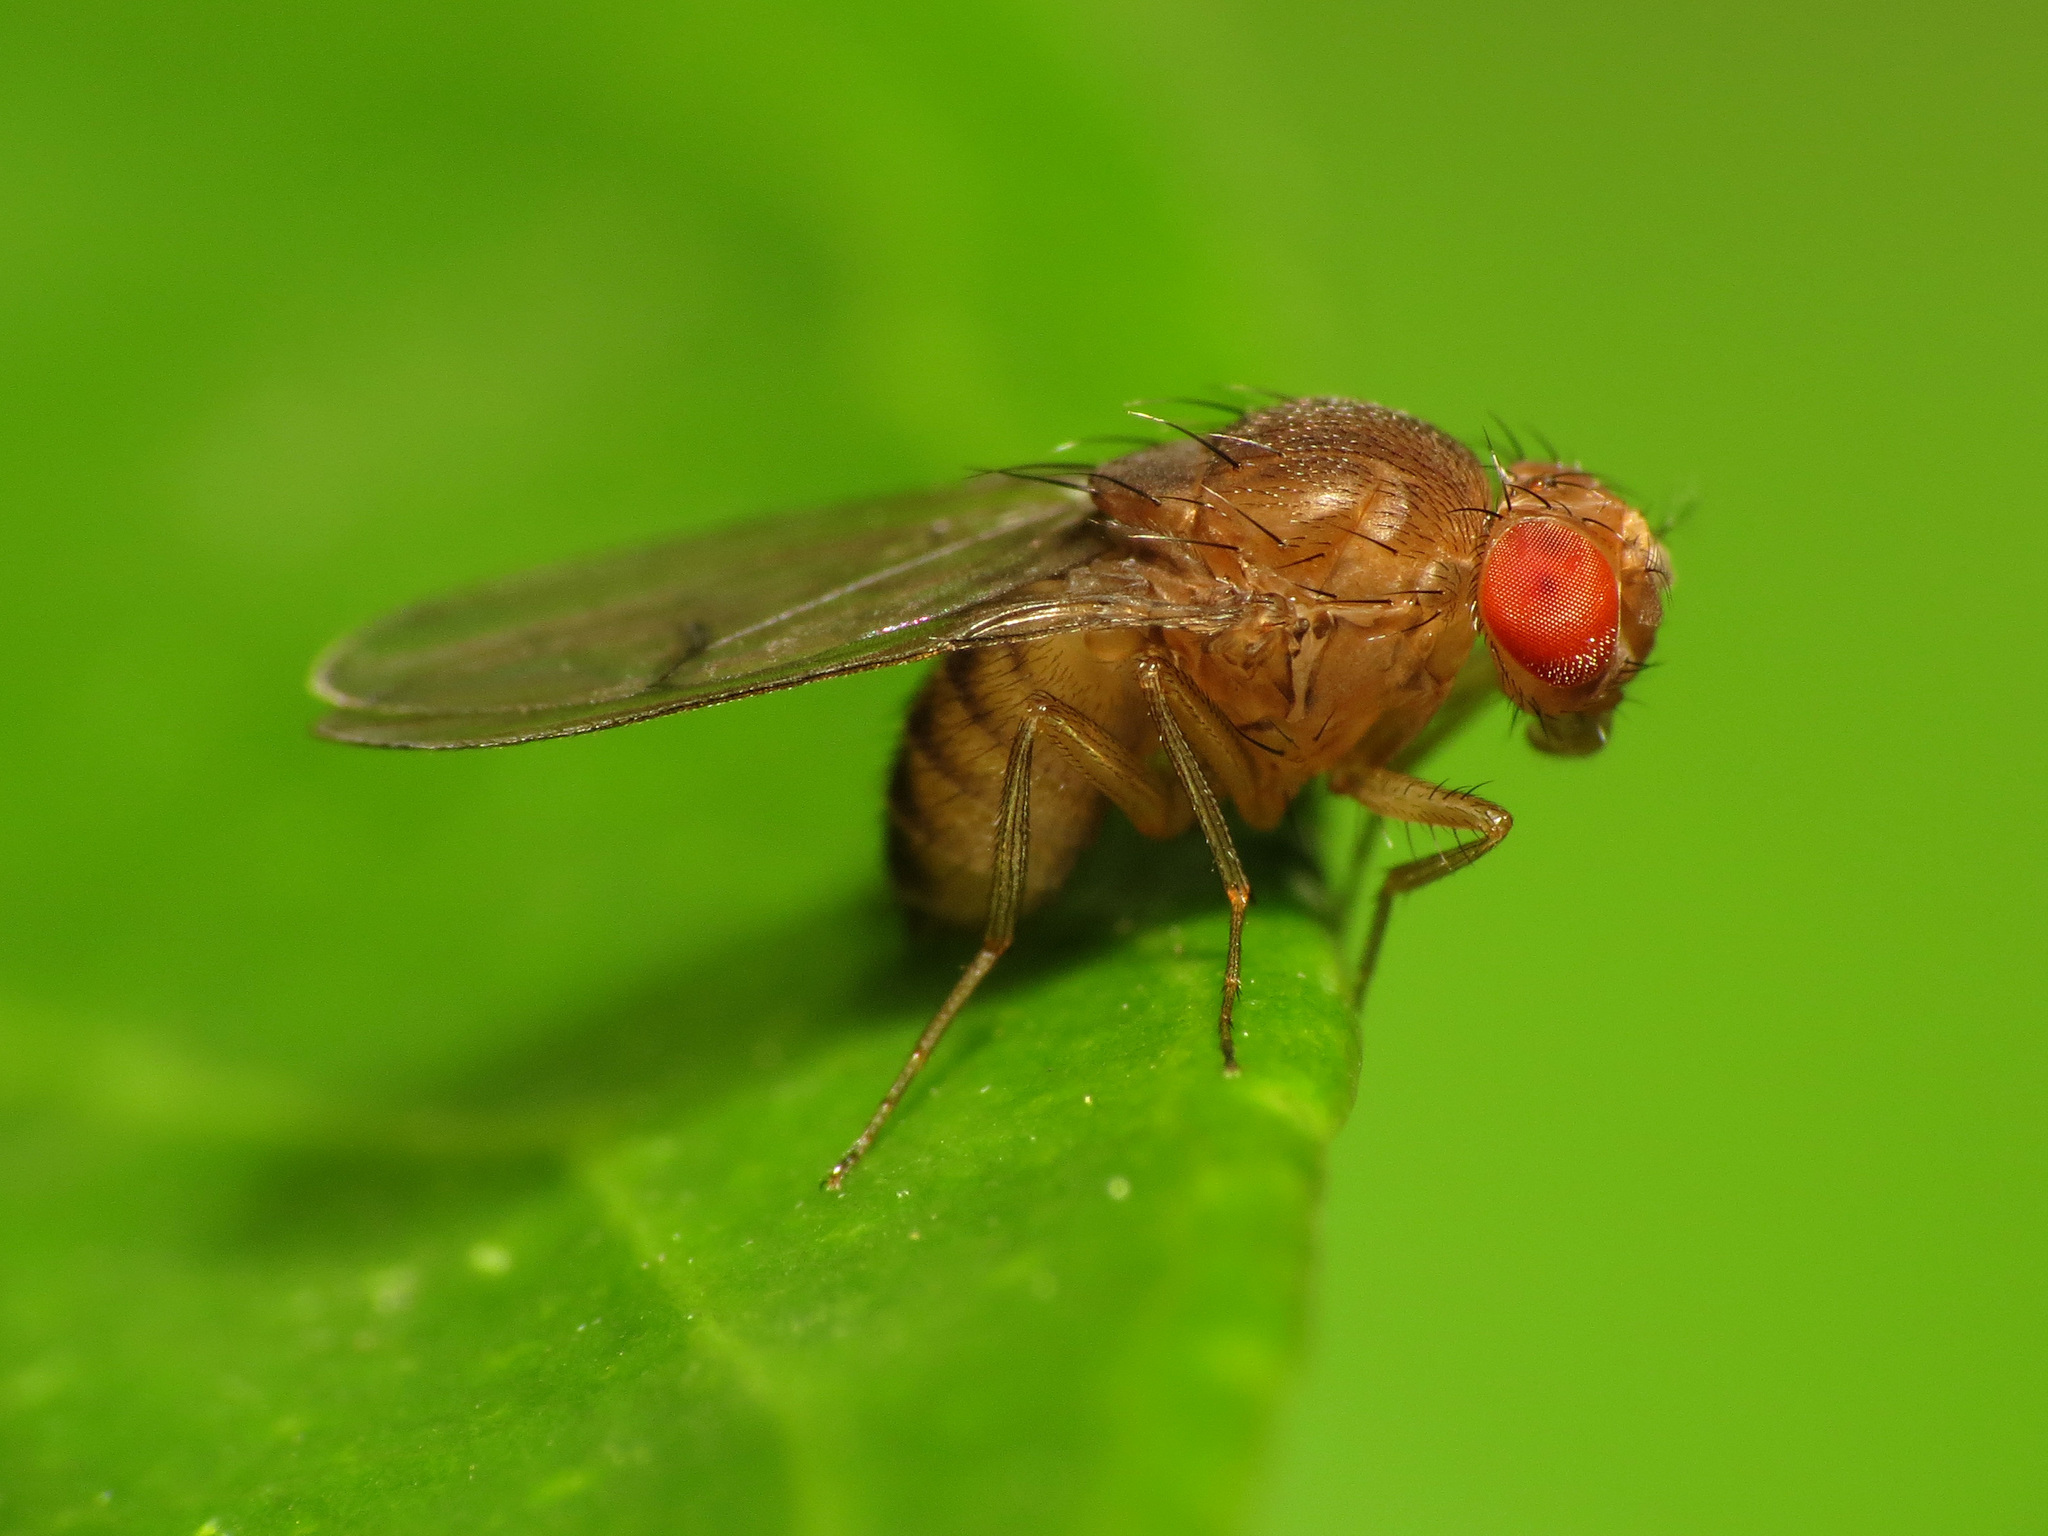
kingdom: Animalia
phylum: Arthropoda
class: Insecta
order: Diptera
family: Drosophilidae
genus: Drosophila
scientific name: Drosophila immigrans
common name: Pomace fly
